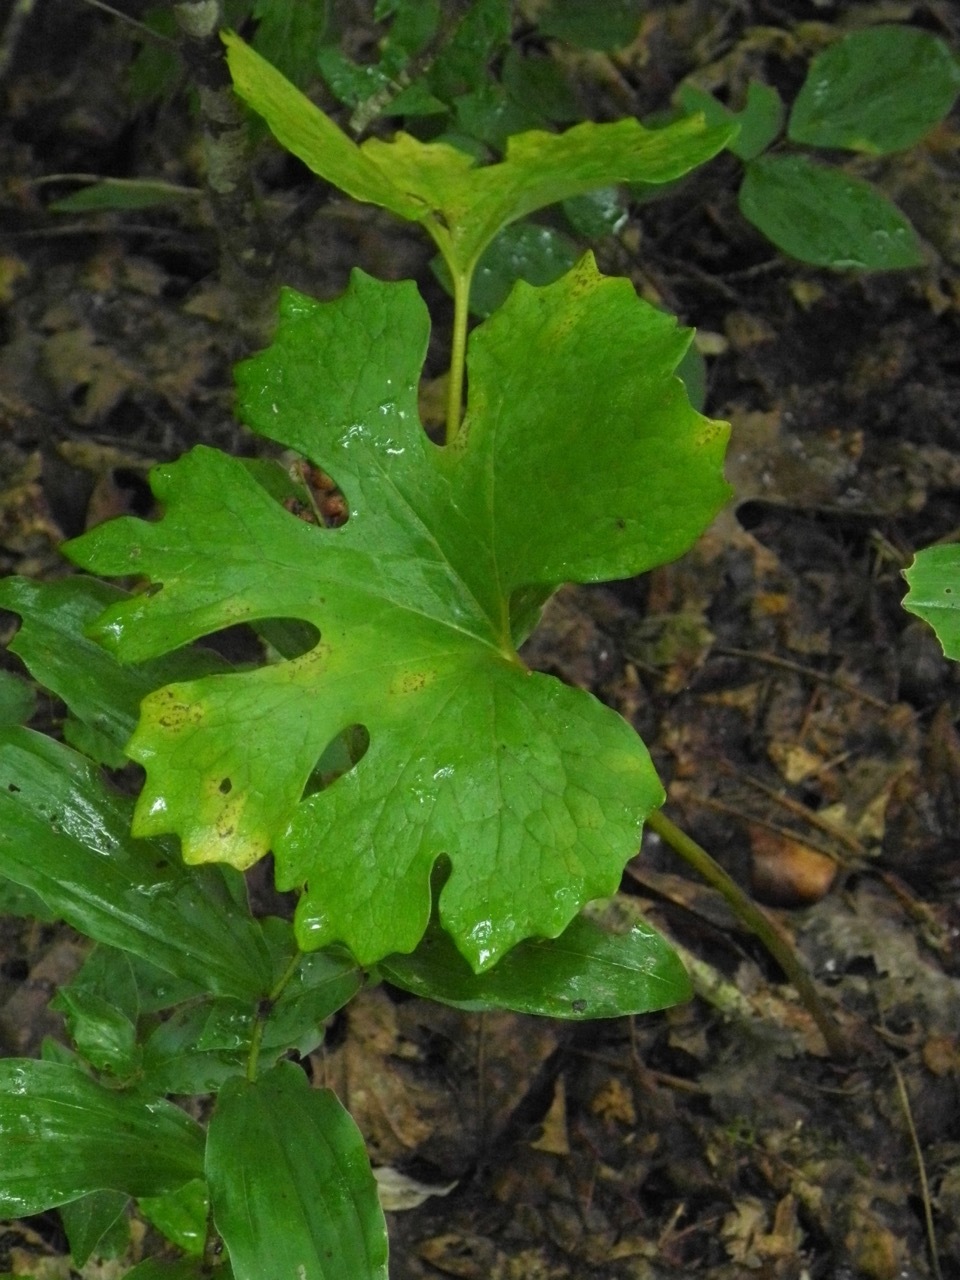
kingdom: Plantae
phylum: Tracheophyta
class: Magnoliopsida
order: Ranunculales
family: Papaveraceae
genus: Sanguinaria
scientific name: Sanguinaria canadensis
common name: Bloodroot
